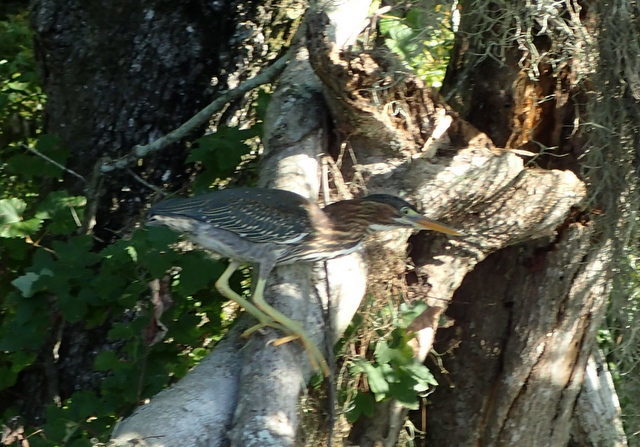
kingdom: Animalia
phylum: Chordata
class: Aves
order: Pelecaniformes
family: Ardeidae
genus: Butorides
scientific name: Butorides virescens
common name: Green heron
